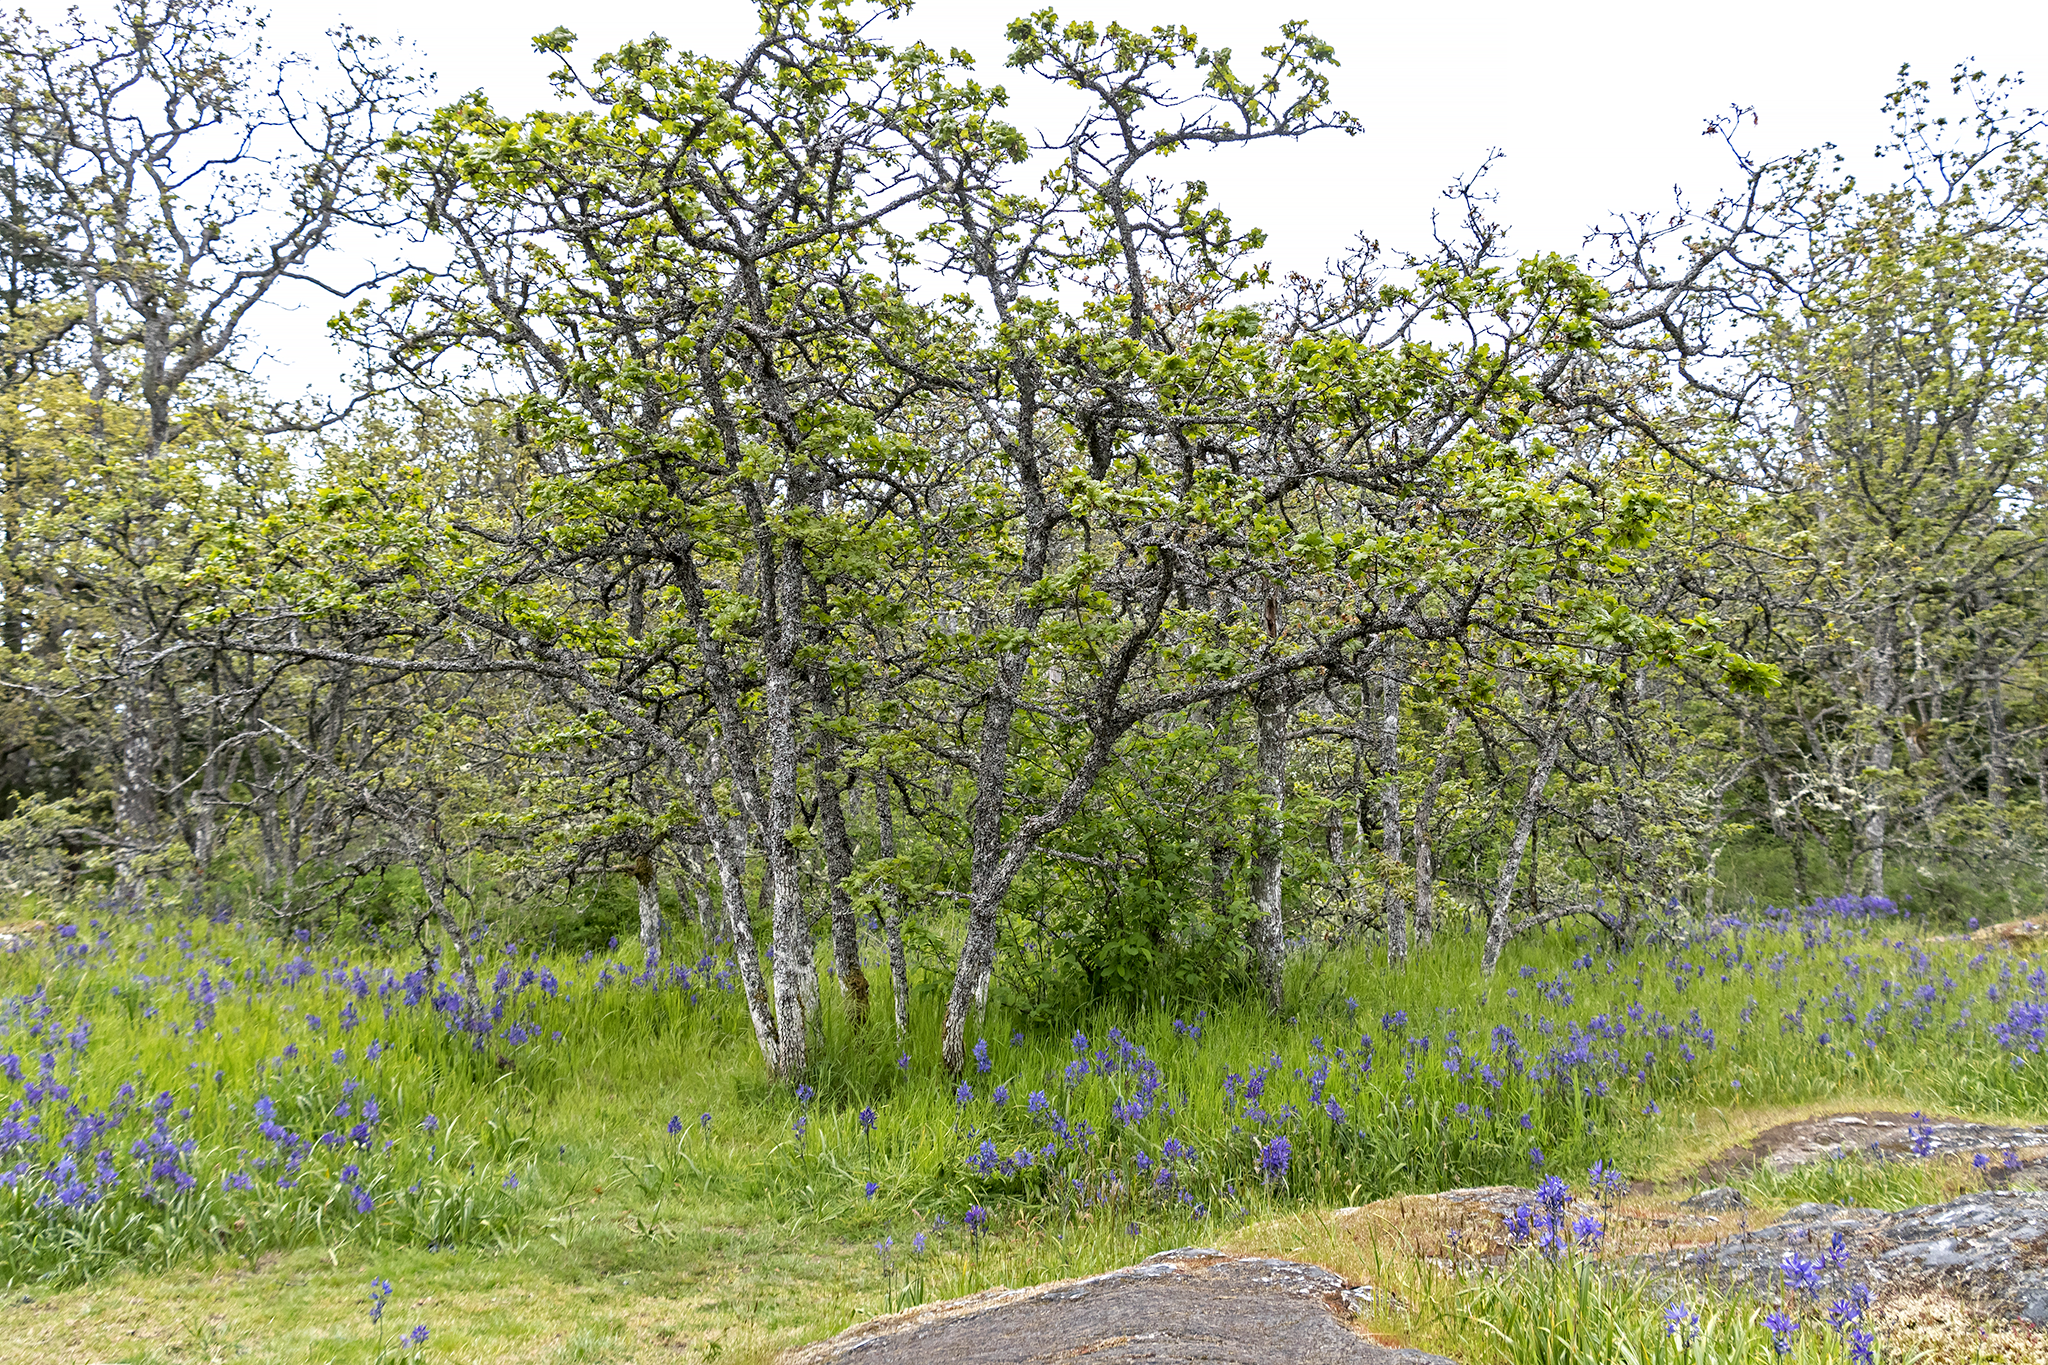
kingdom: Plantae
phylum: Tracheophyta
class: Magnoliopsida
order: Fagales
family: Fagaceae
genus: Quercus
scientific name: Quercus garryana
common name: Garry oak
